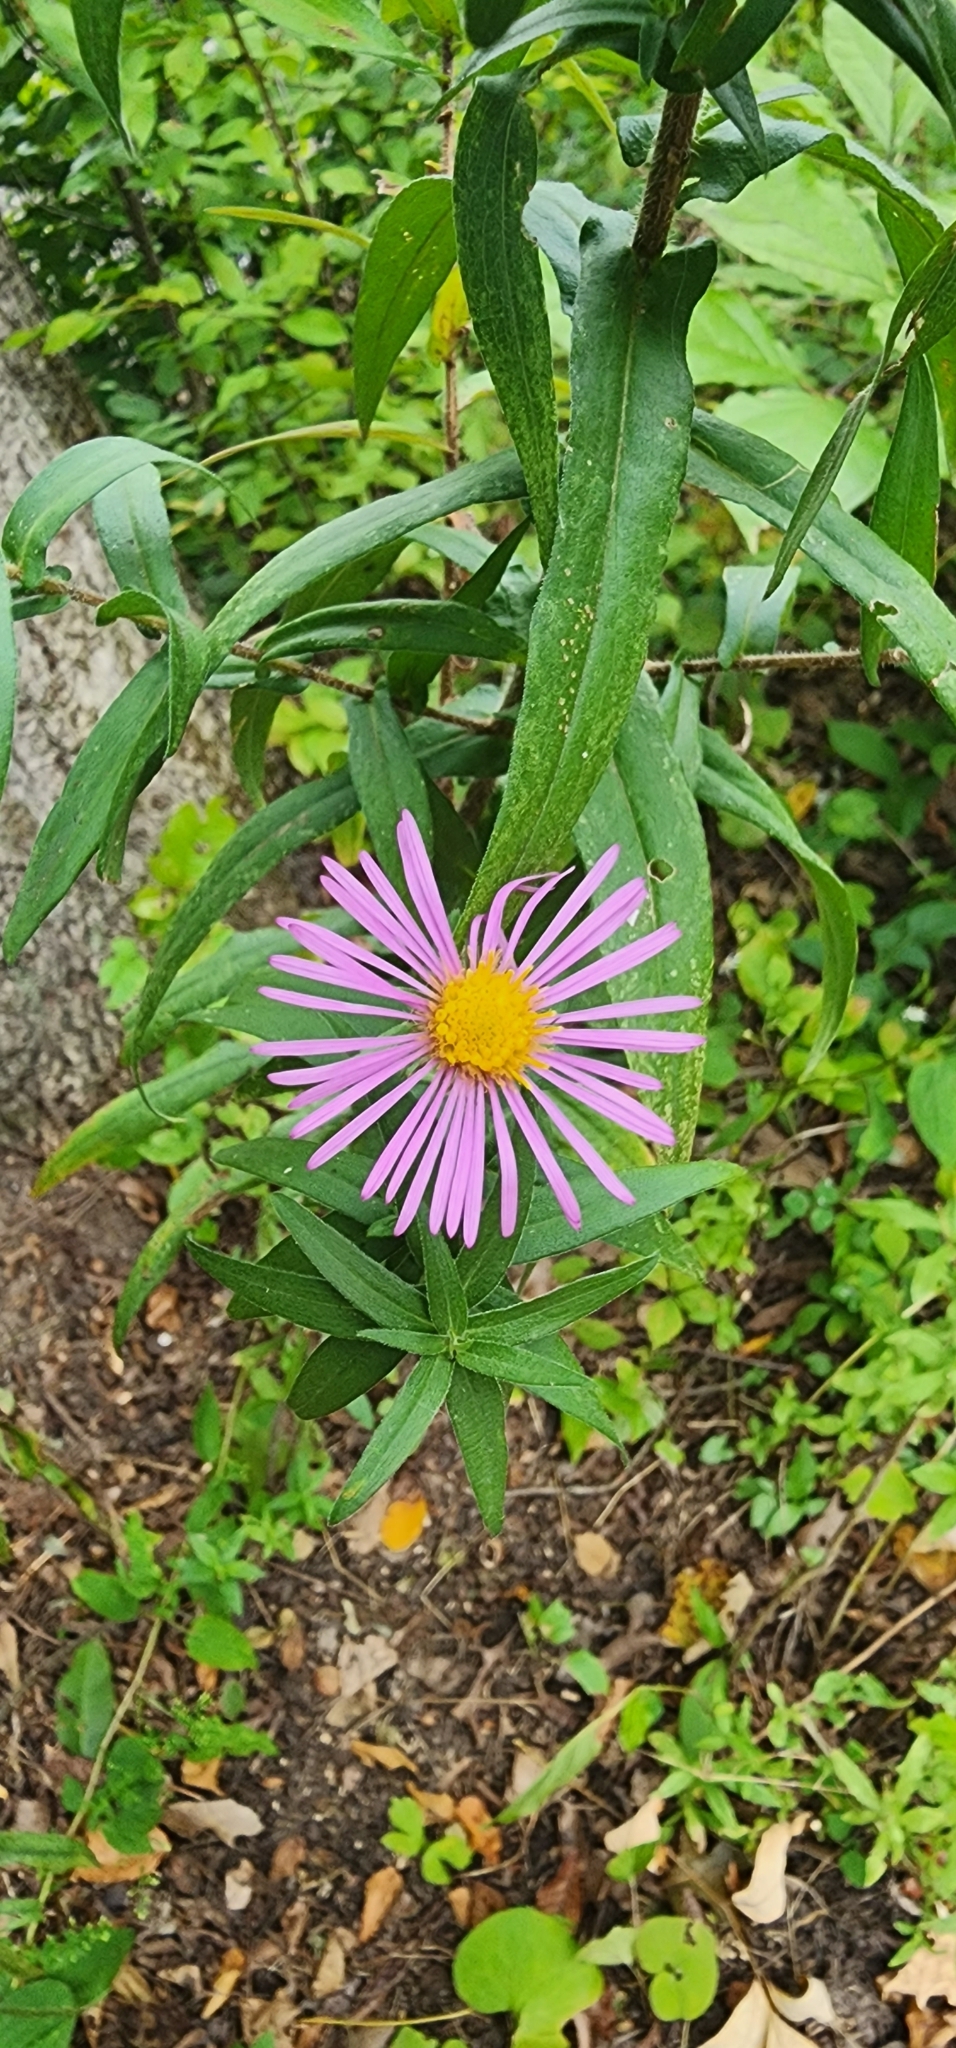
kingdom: Plantae
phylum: Tracheophyta
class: Magnoliopsida
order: Asterales
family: Asteraceae
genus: Symphyotrichum
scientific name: Symphyotrichum novae-angliae
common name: Michaelmas daisy
